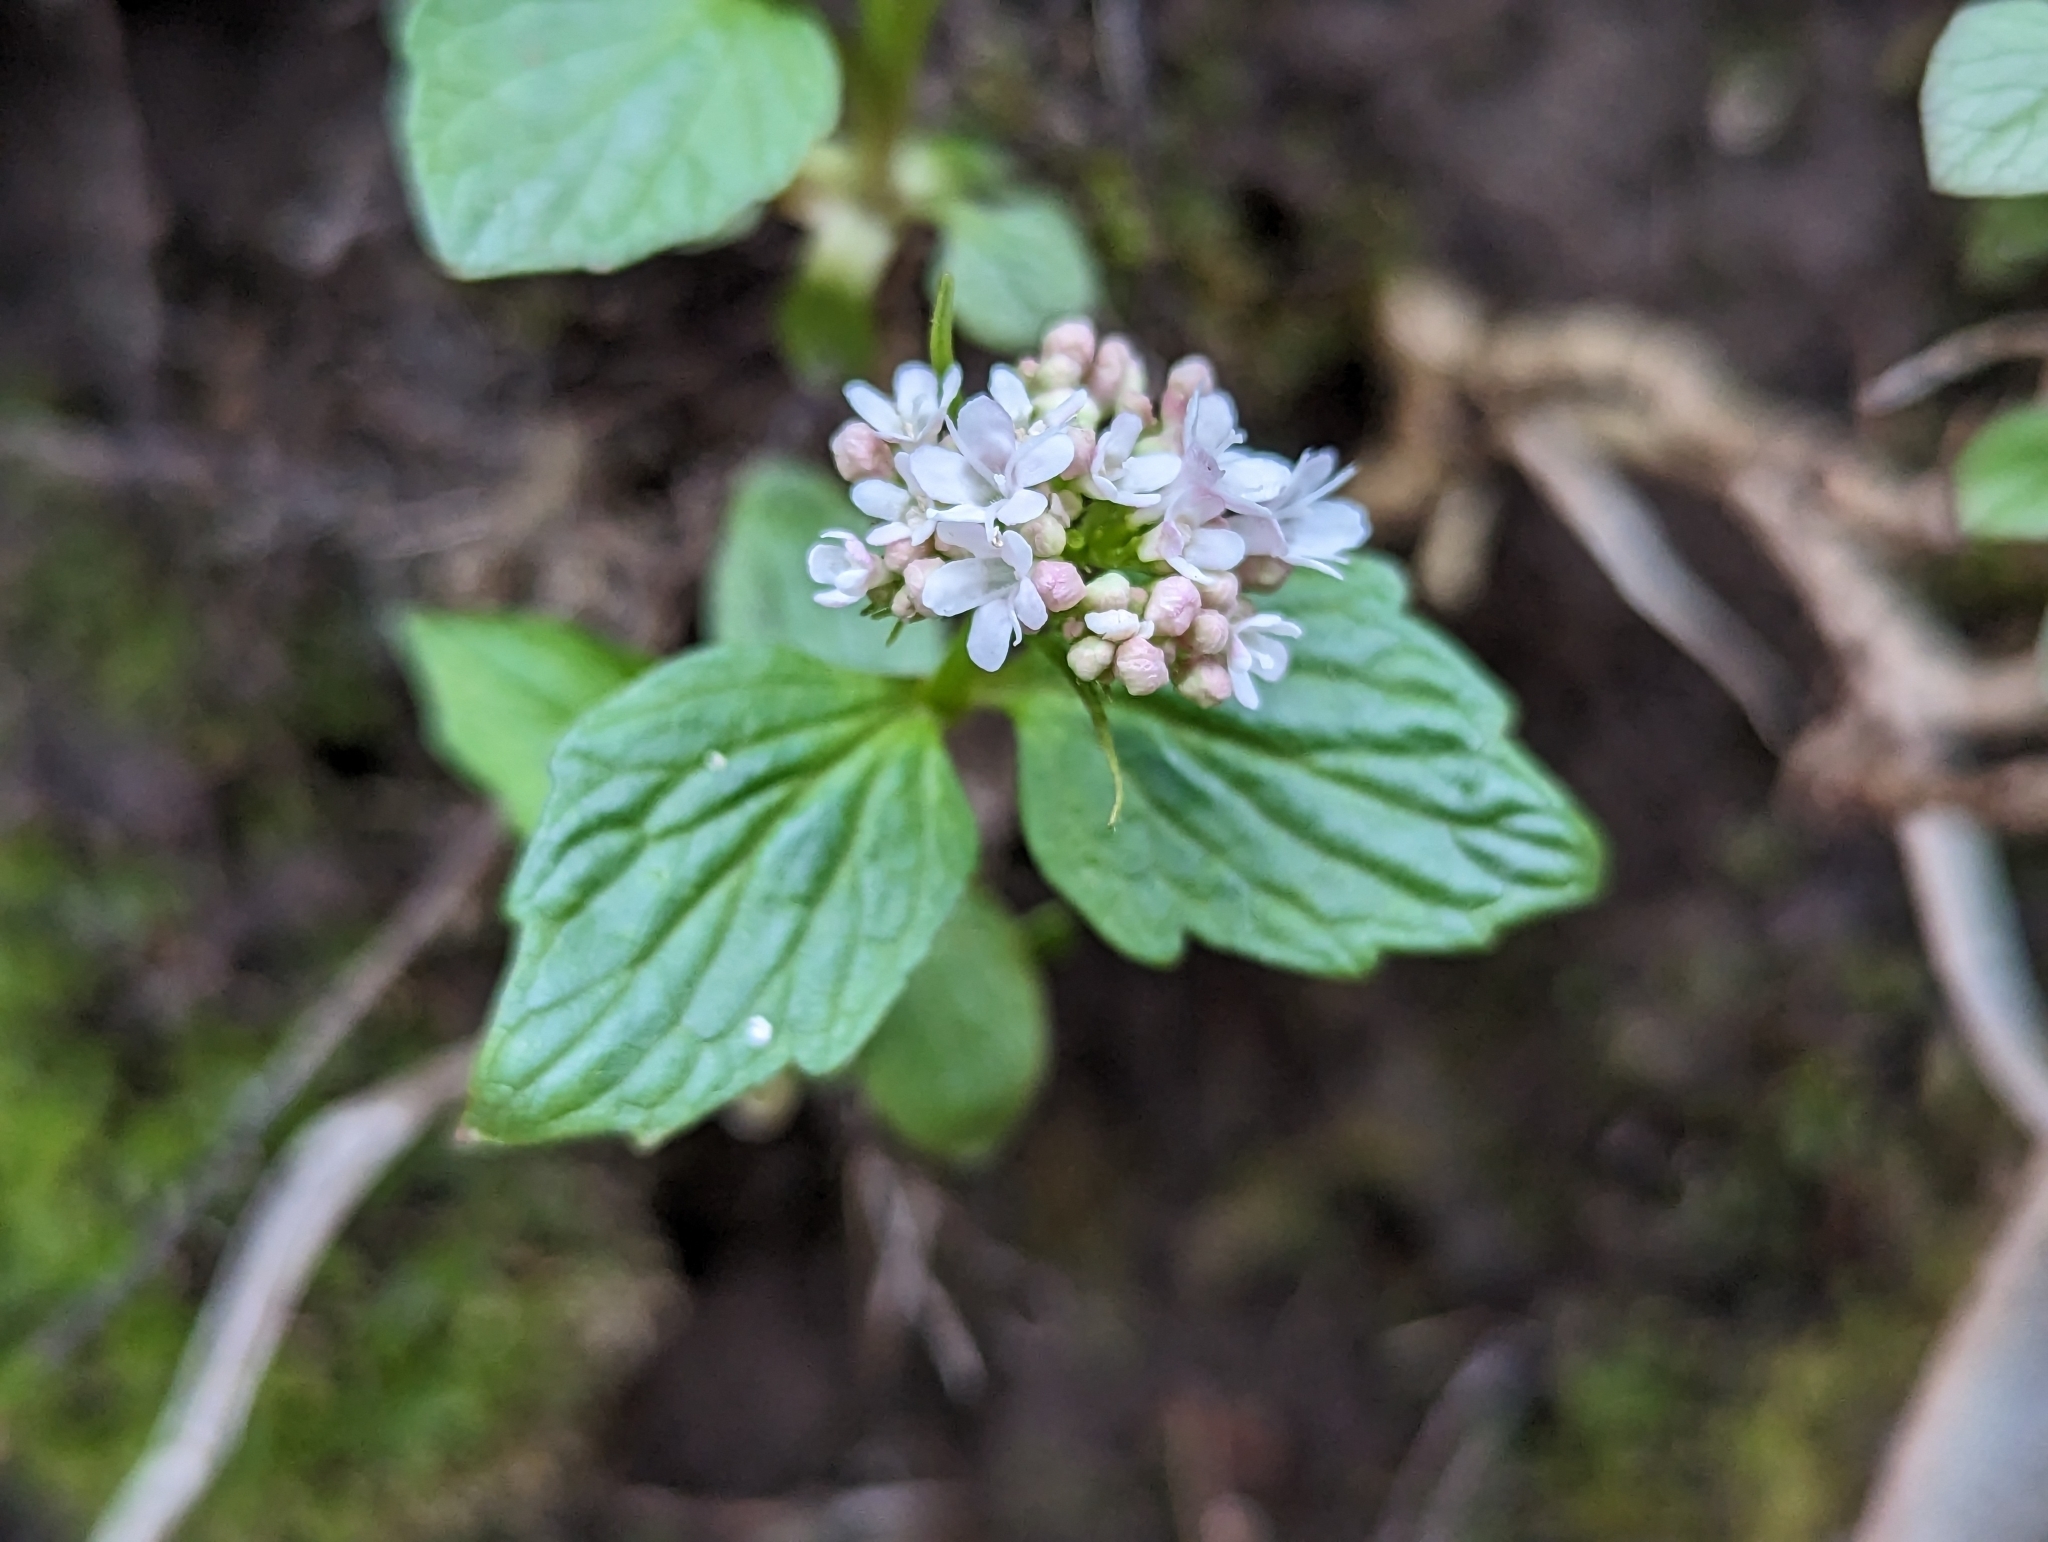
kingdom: Plantae
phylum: Tracheophyta
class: Magnoliopsida
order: Dipsacales
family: Caprifoliaceae
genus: Valeriana
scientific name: Valeriana tripteris
